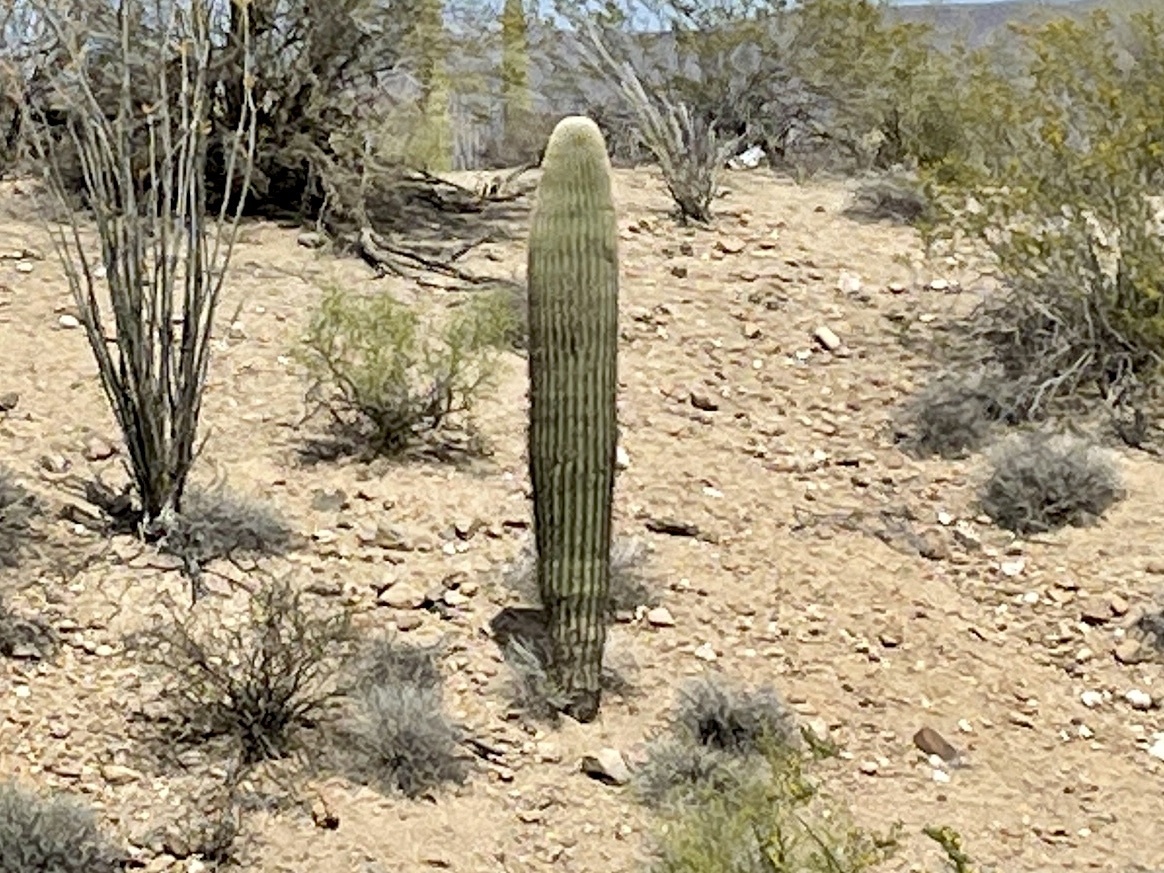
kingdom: Plantae
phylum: Tracheophyta
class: Magnoliopsida
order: Caryophyllales
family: Cactaceae
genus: Carnegiea
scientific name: Carnegiea gigantea
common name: Saguaro
